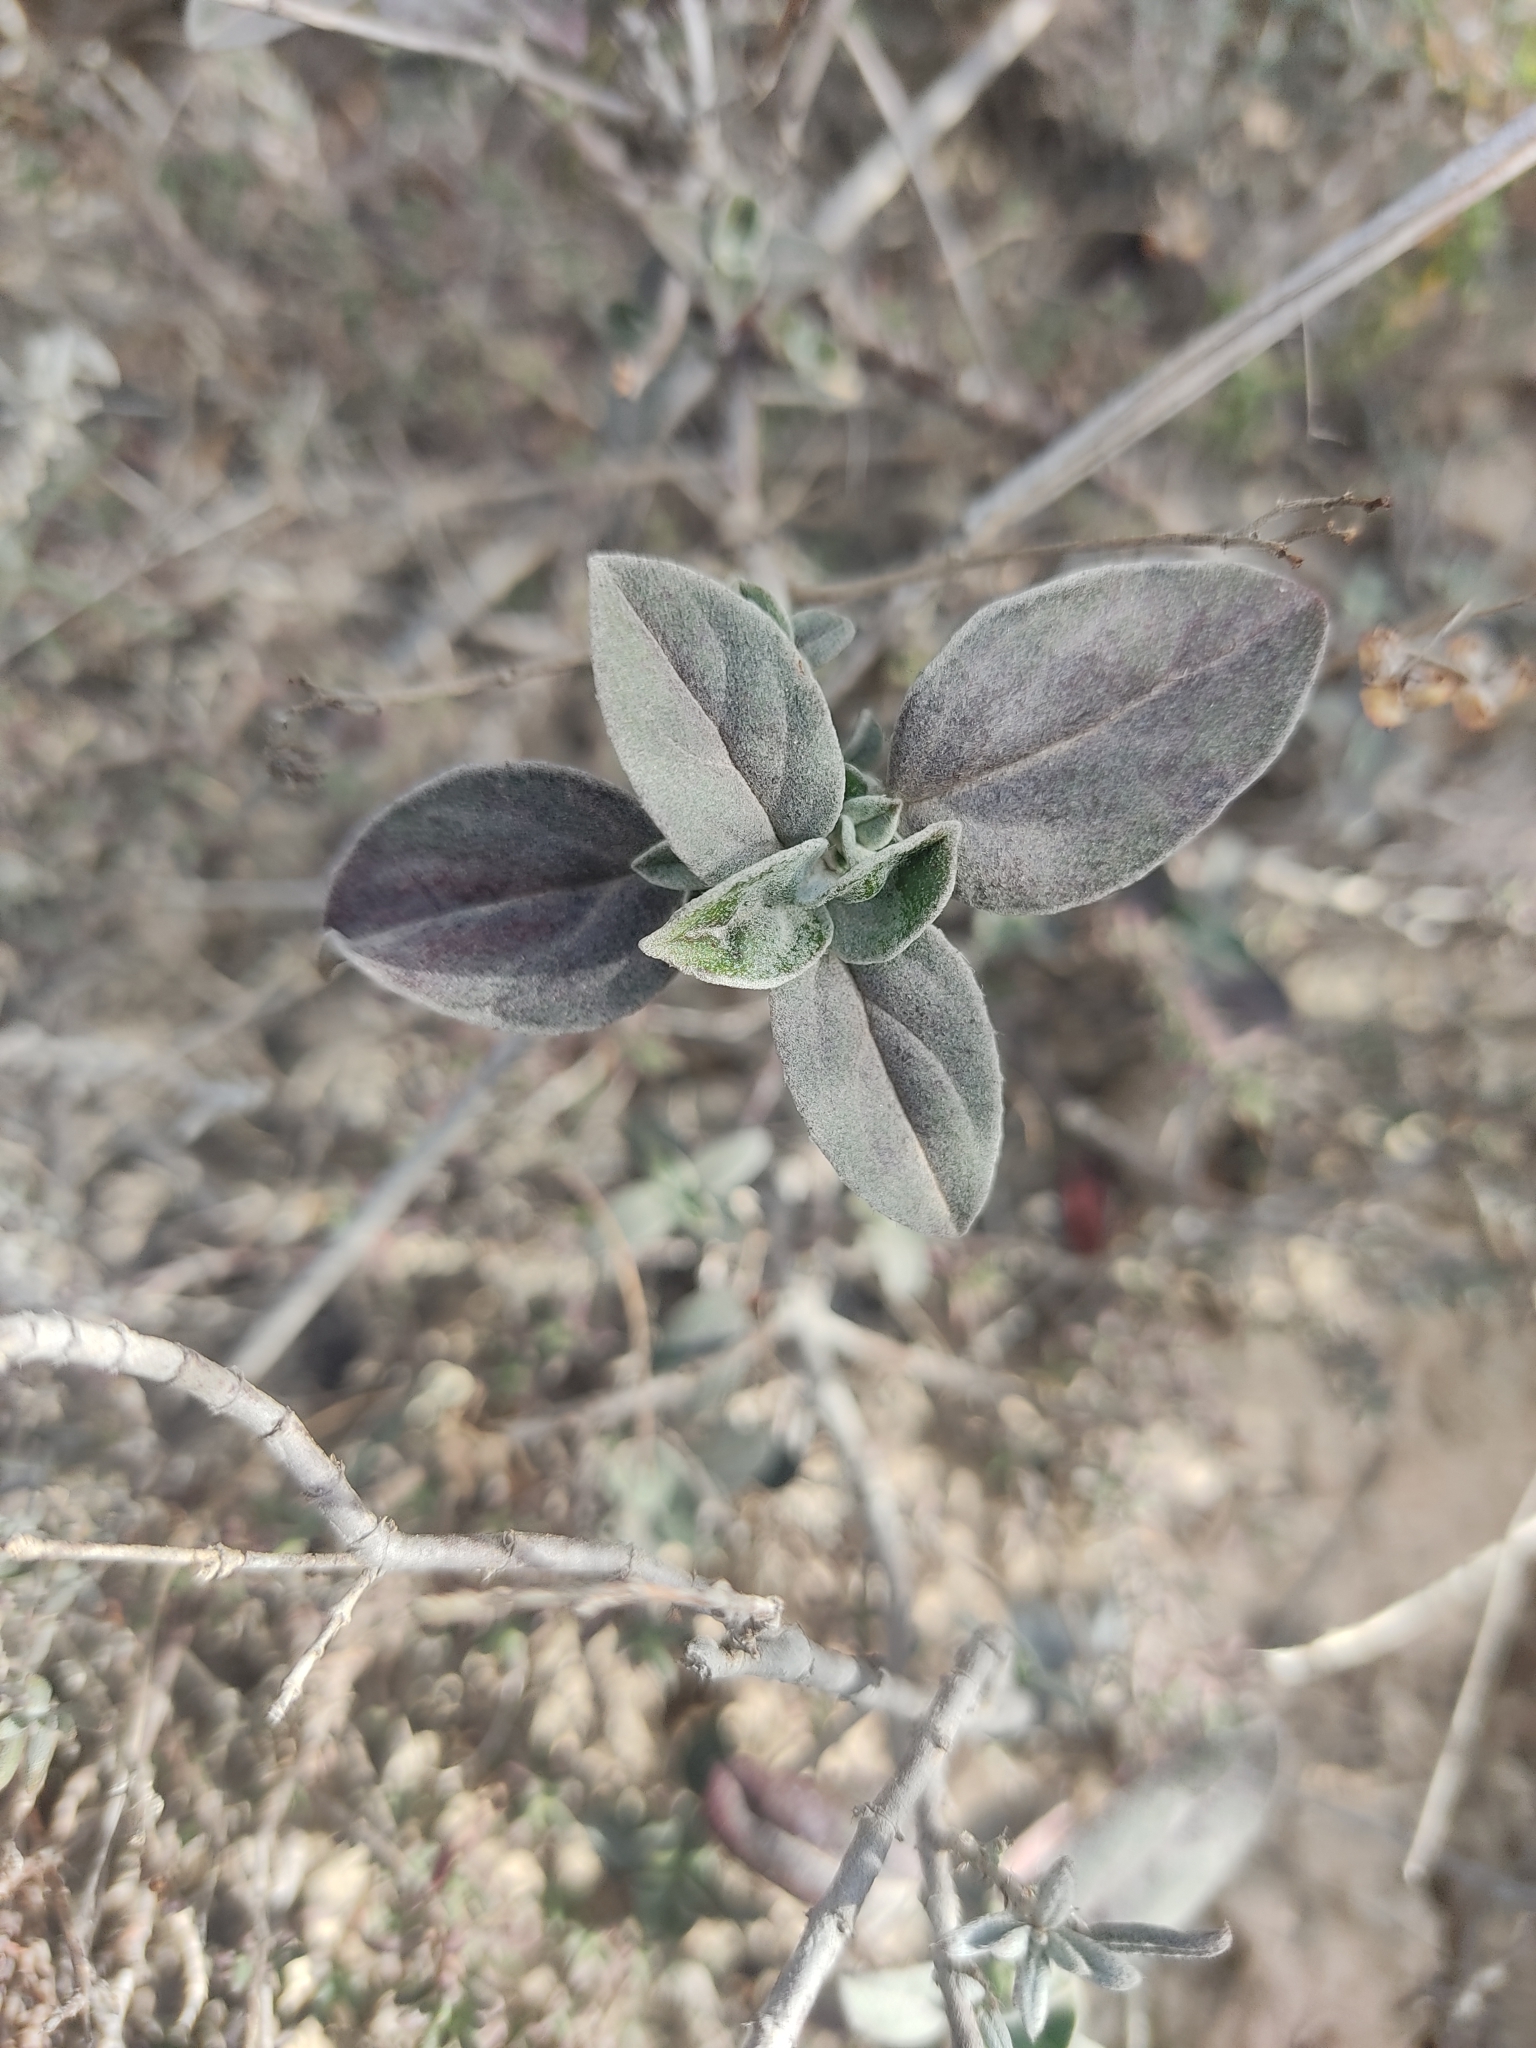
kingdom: Plantae
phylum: Tracheophyta
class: Magnoliopsida
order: Malvales
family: Cistaceae
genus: Helianthemum
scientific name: Helianthemum cinereum
